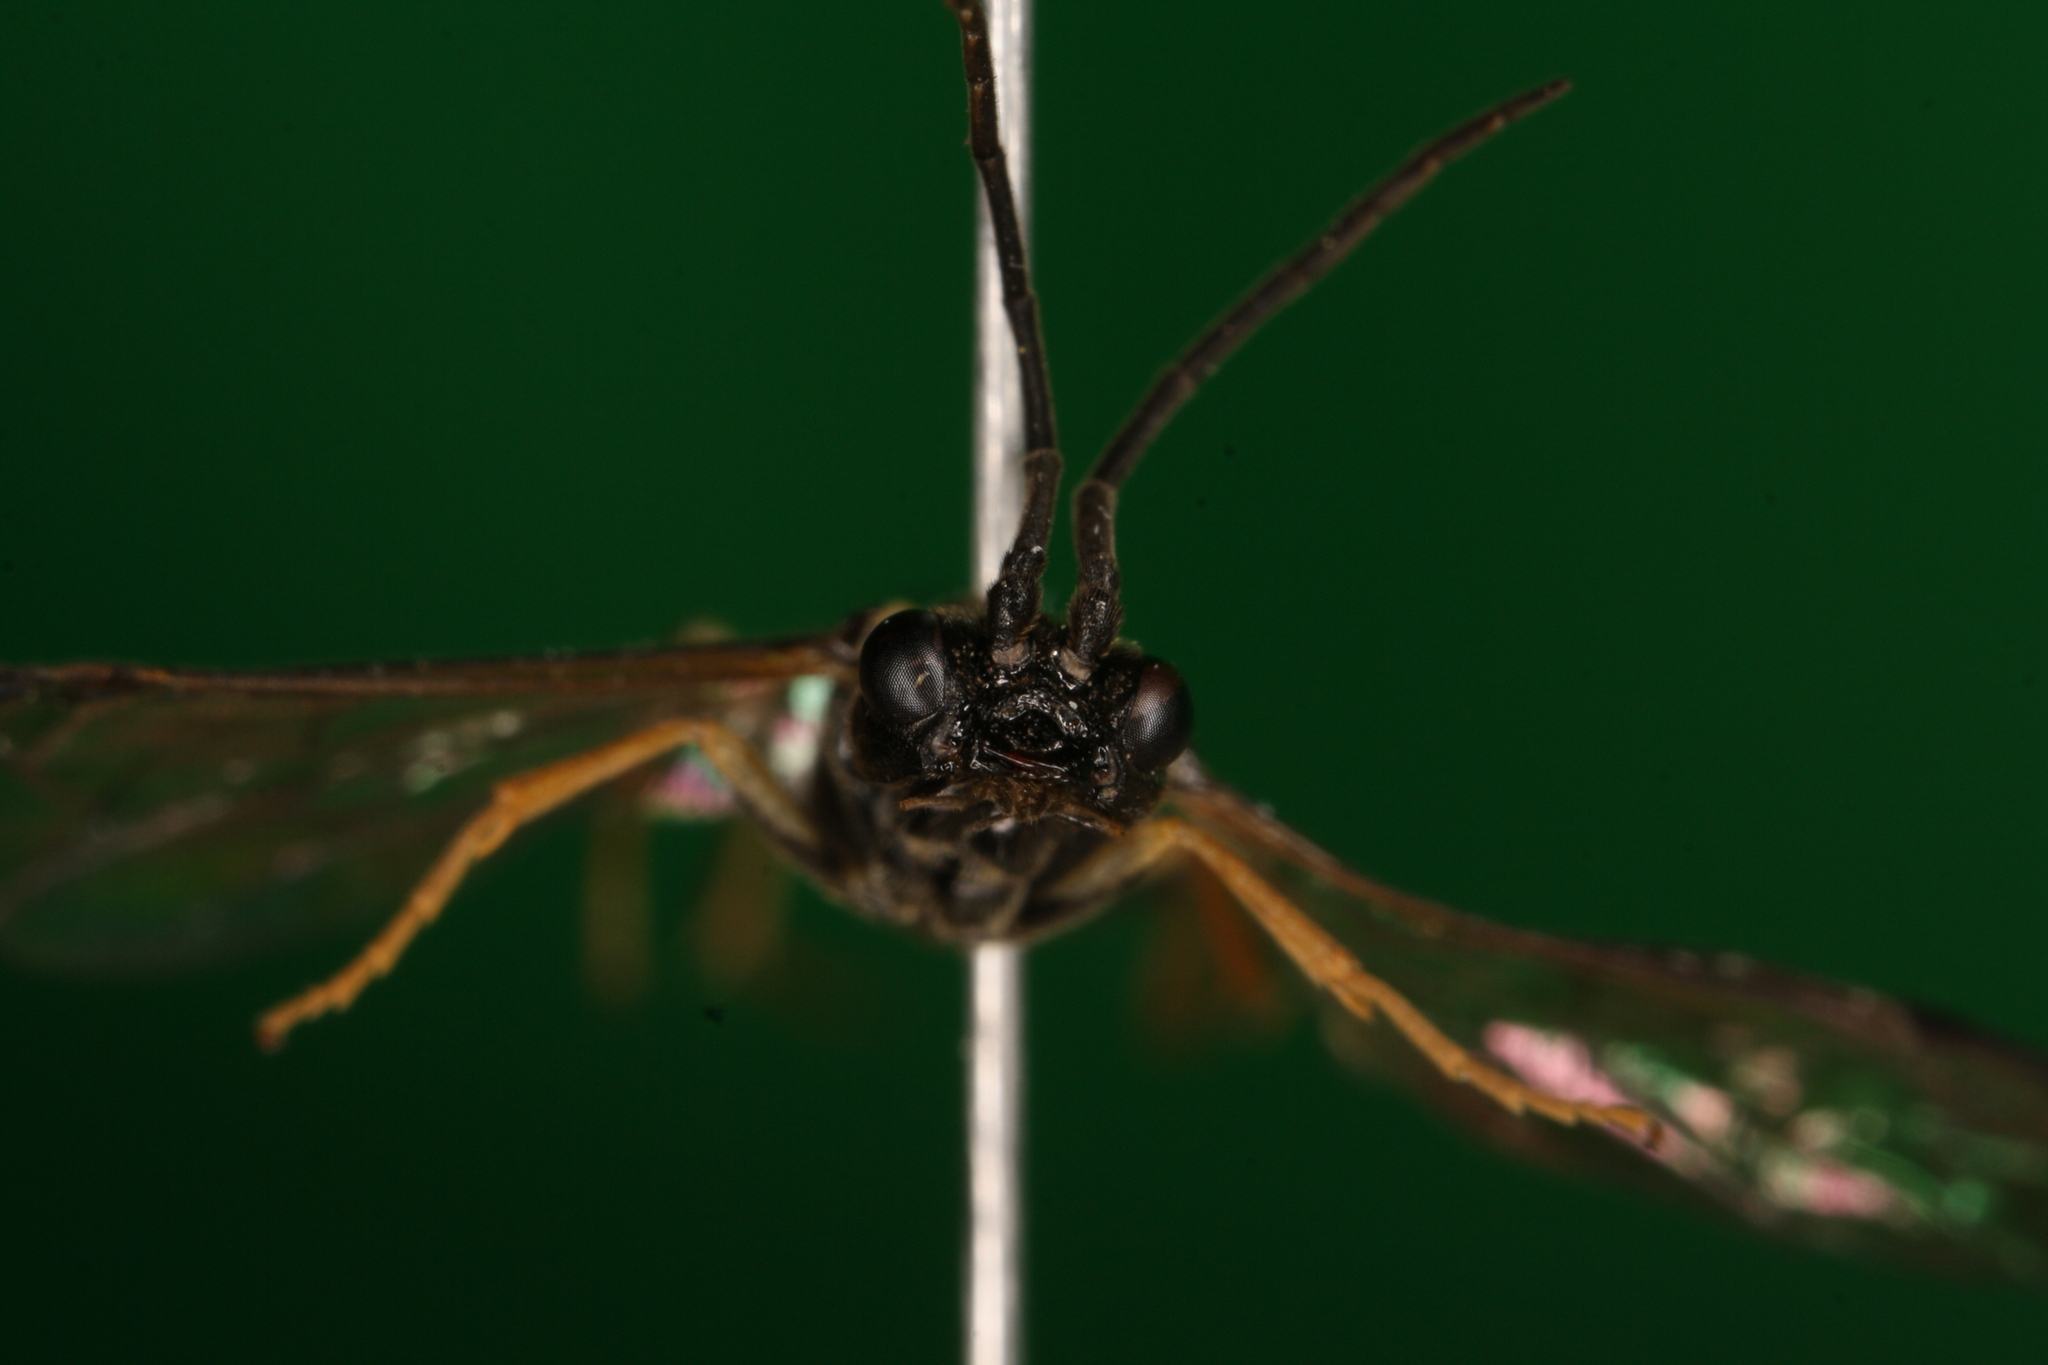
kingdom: Animalia
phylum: Arthropoda
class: Insecta
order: Hymenoptera
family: Tenthredinidae
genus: Allantus
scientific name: Allantus rufocinctus
